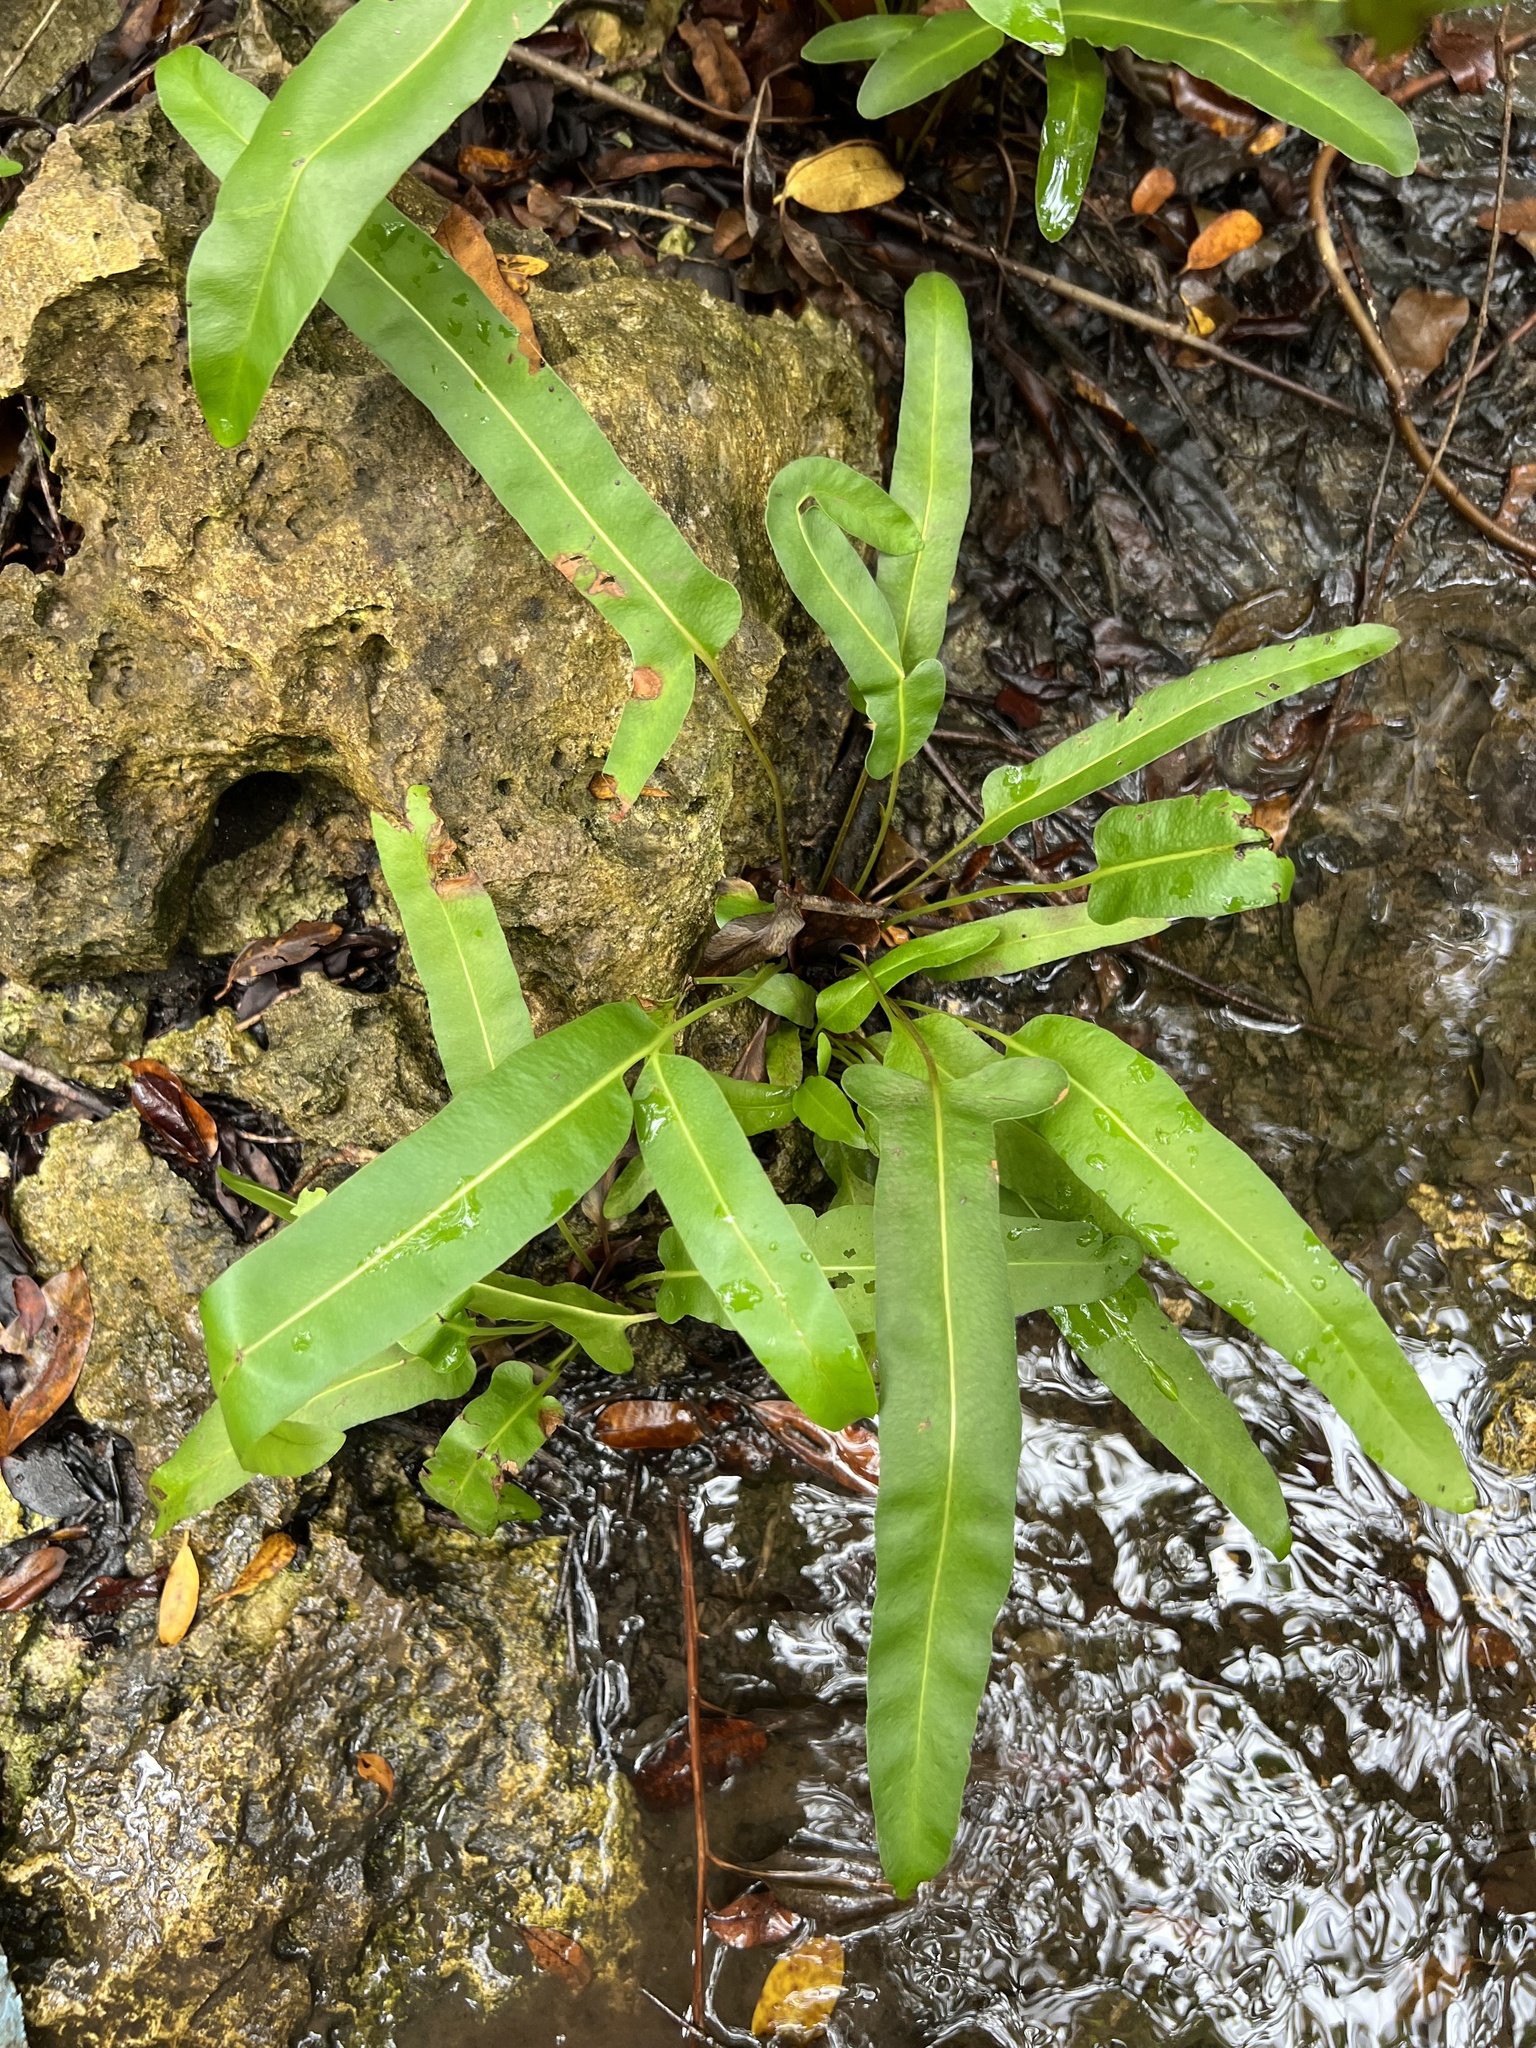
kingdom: Plantae
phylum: Tracheophyta
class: Polypodiopsida
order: Polypodiales
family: Pteridaceae
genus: Acrostichum
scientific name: Acrostichum aureum
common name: Leather fern
